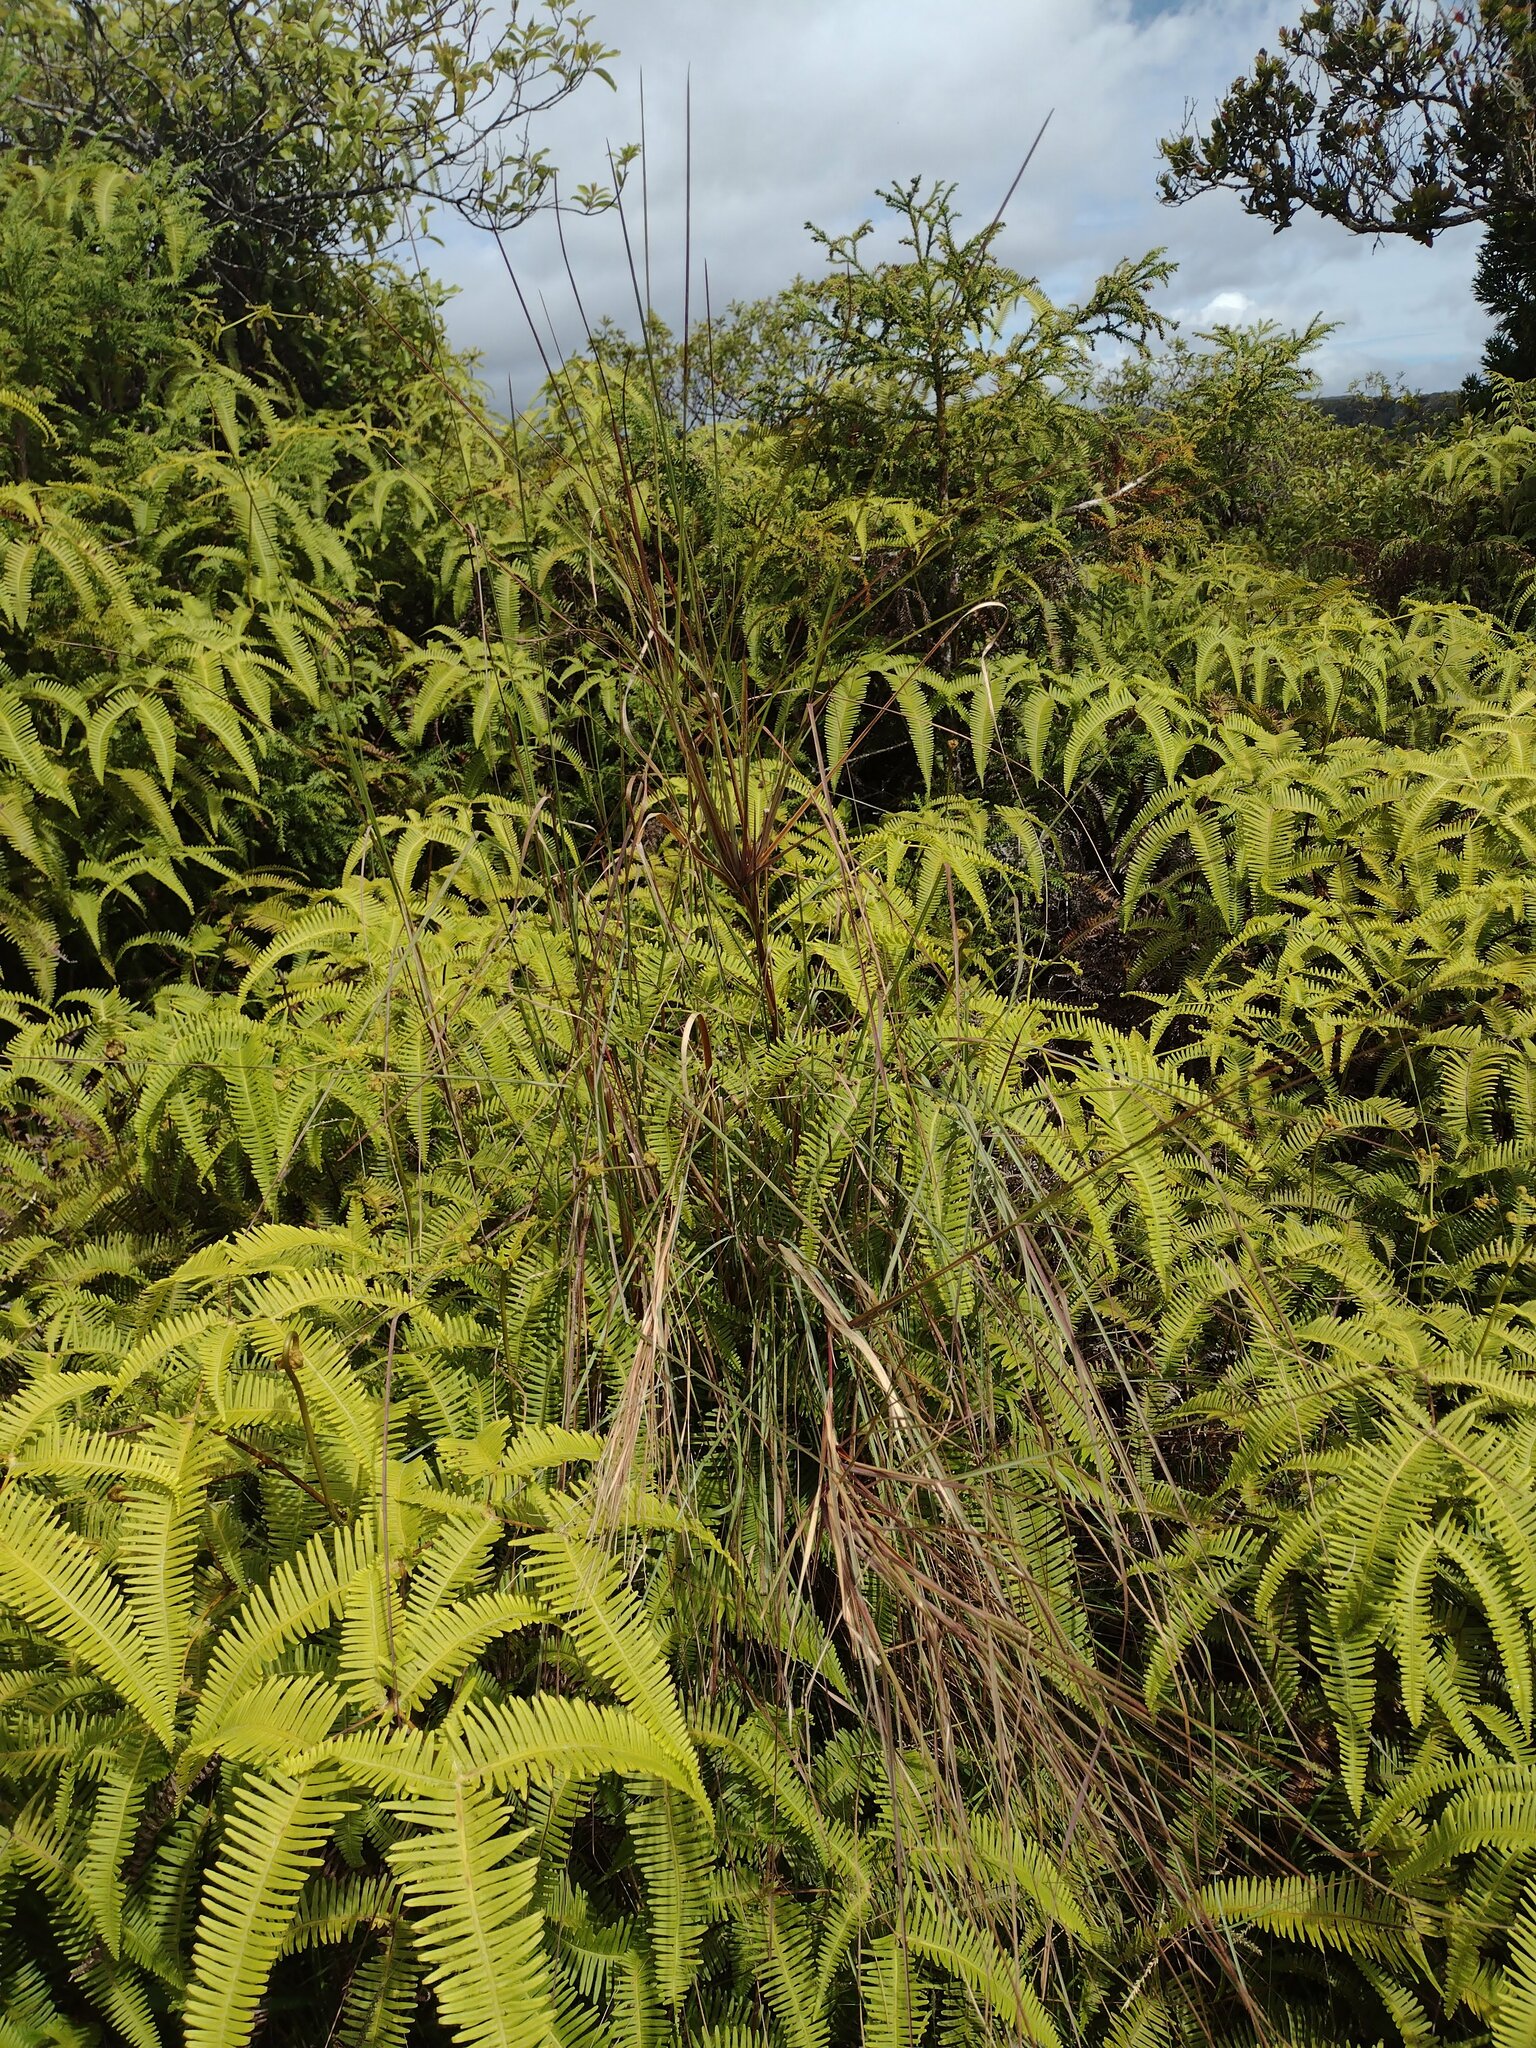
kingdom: Plantae
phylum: Tracheophyta
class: Liliopsida
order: Poales
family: Poaceae
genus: Andropogon
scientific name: Andropogon bicornis
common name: West indian foxtail grass
